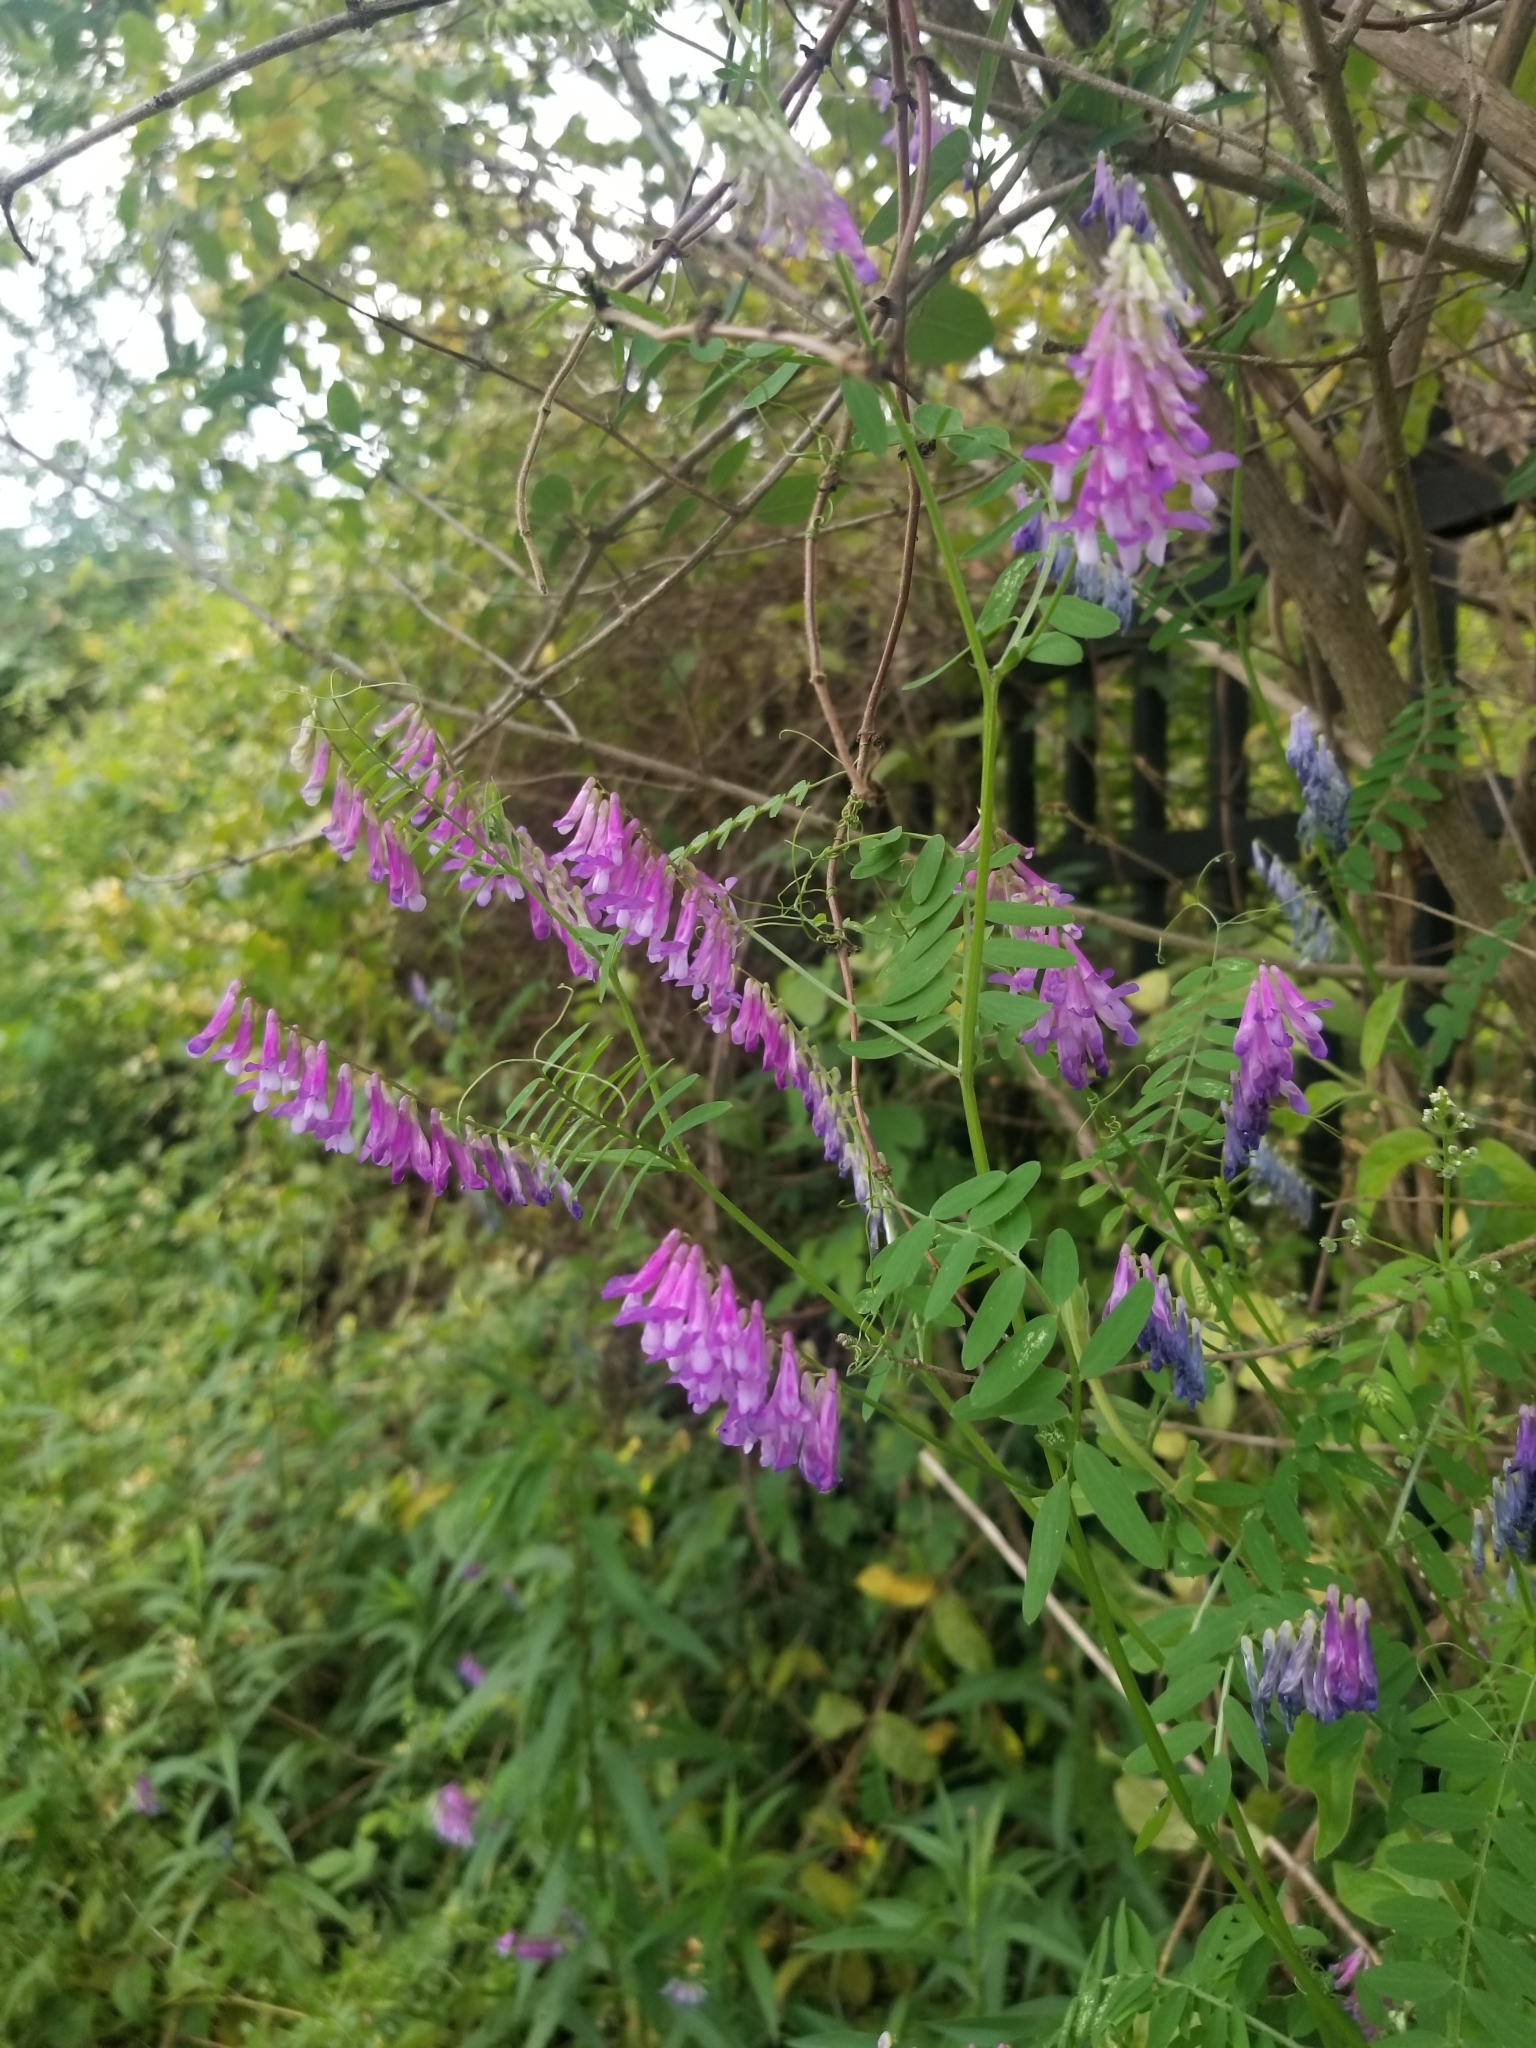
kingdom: Plantae
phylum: Tracheophyta
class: Magnoliopsida
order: Fabales
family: Fabaceae
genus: Vicia
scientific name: Vicia villosa
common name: Fodder vetch
